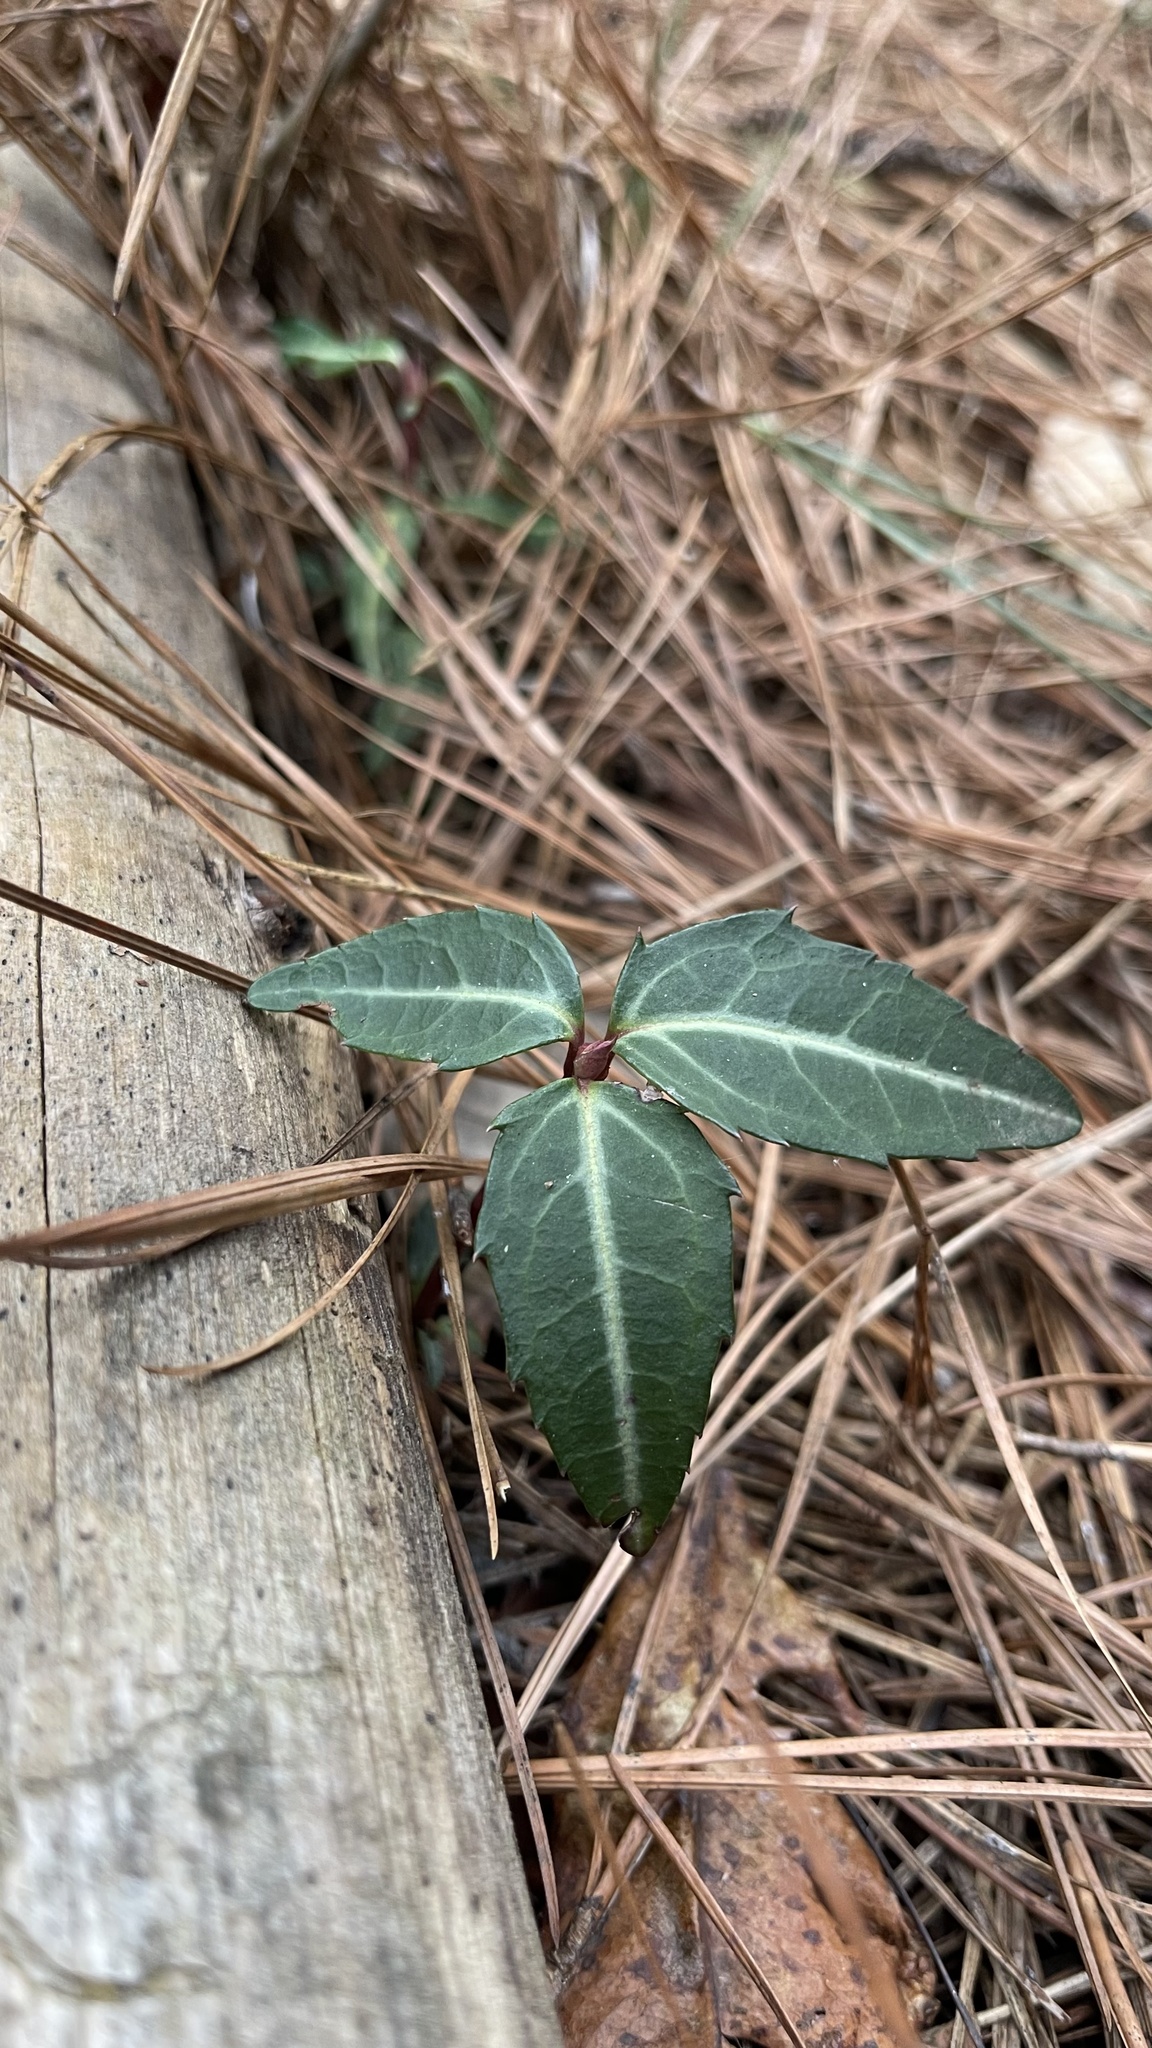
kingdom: Plantae
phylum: Tracheophyta
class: Magnoliopsida
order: Ericales
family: Ericaceae
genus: Chimaphila
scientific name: Chimaphila maculata
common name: Spotted pipsissewa
